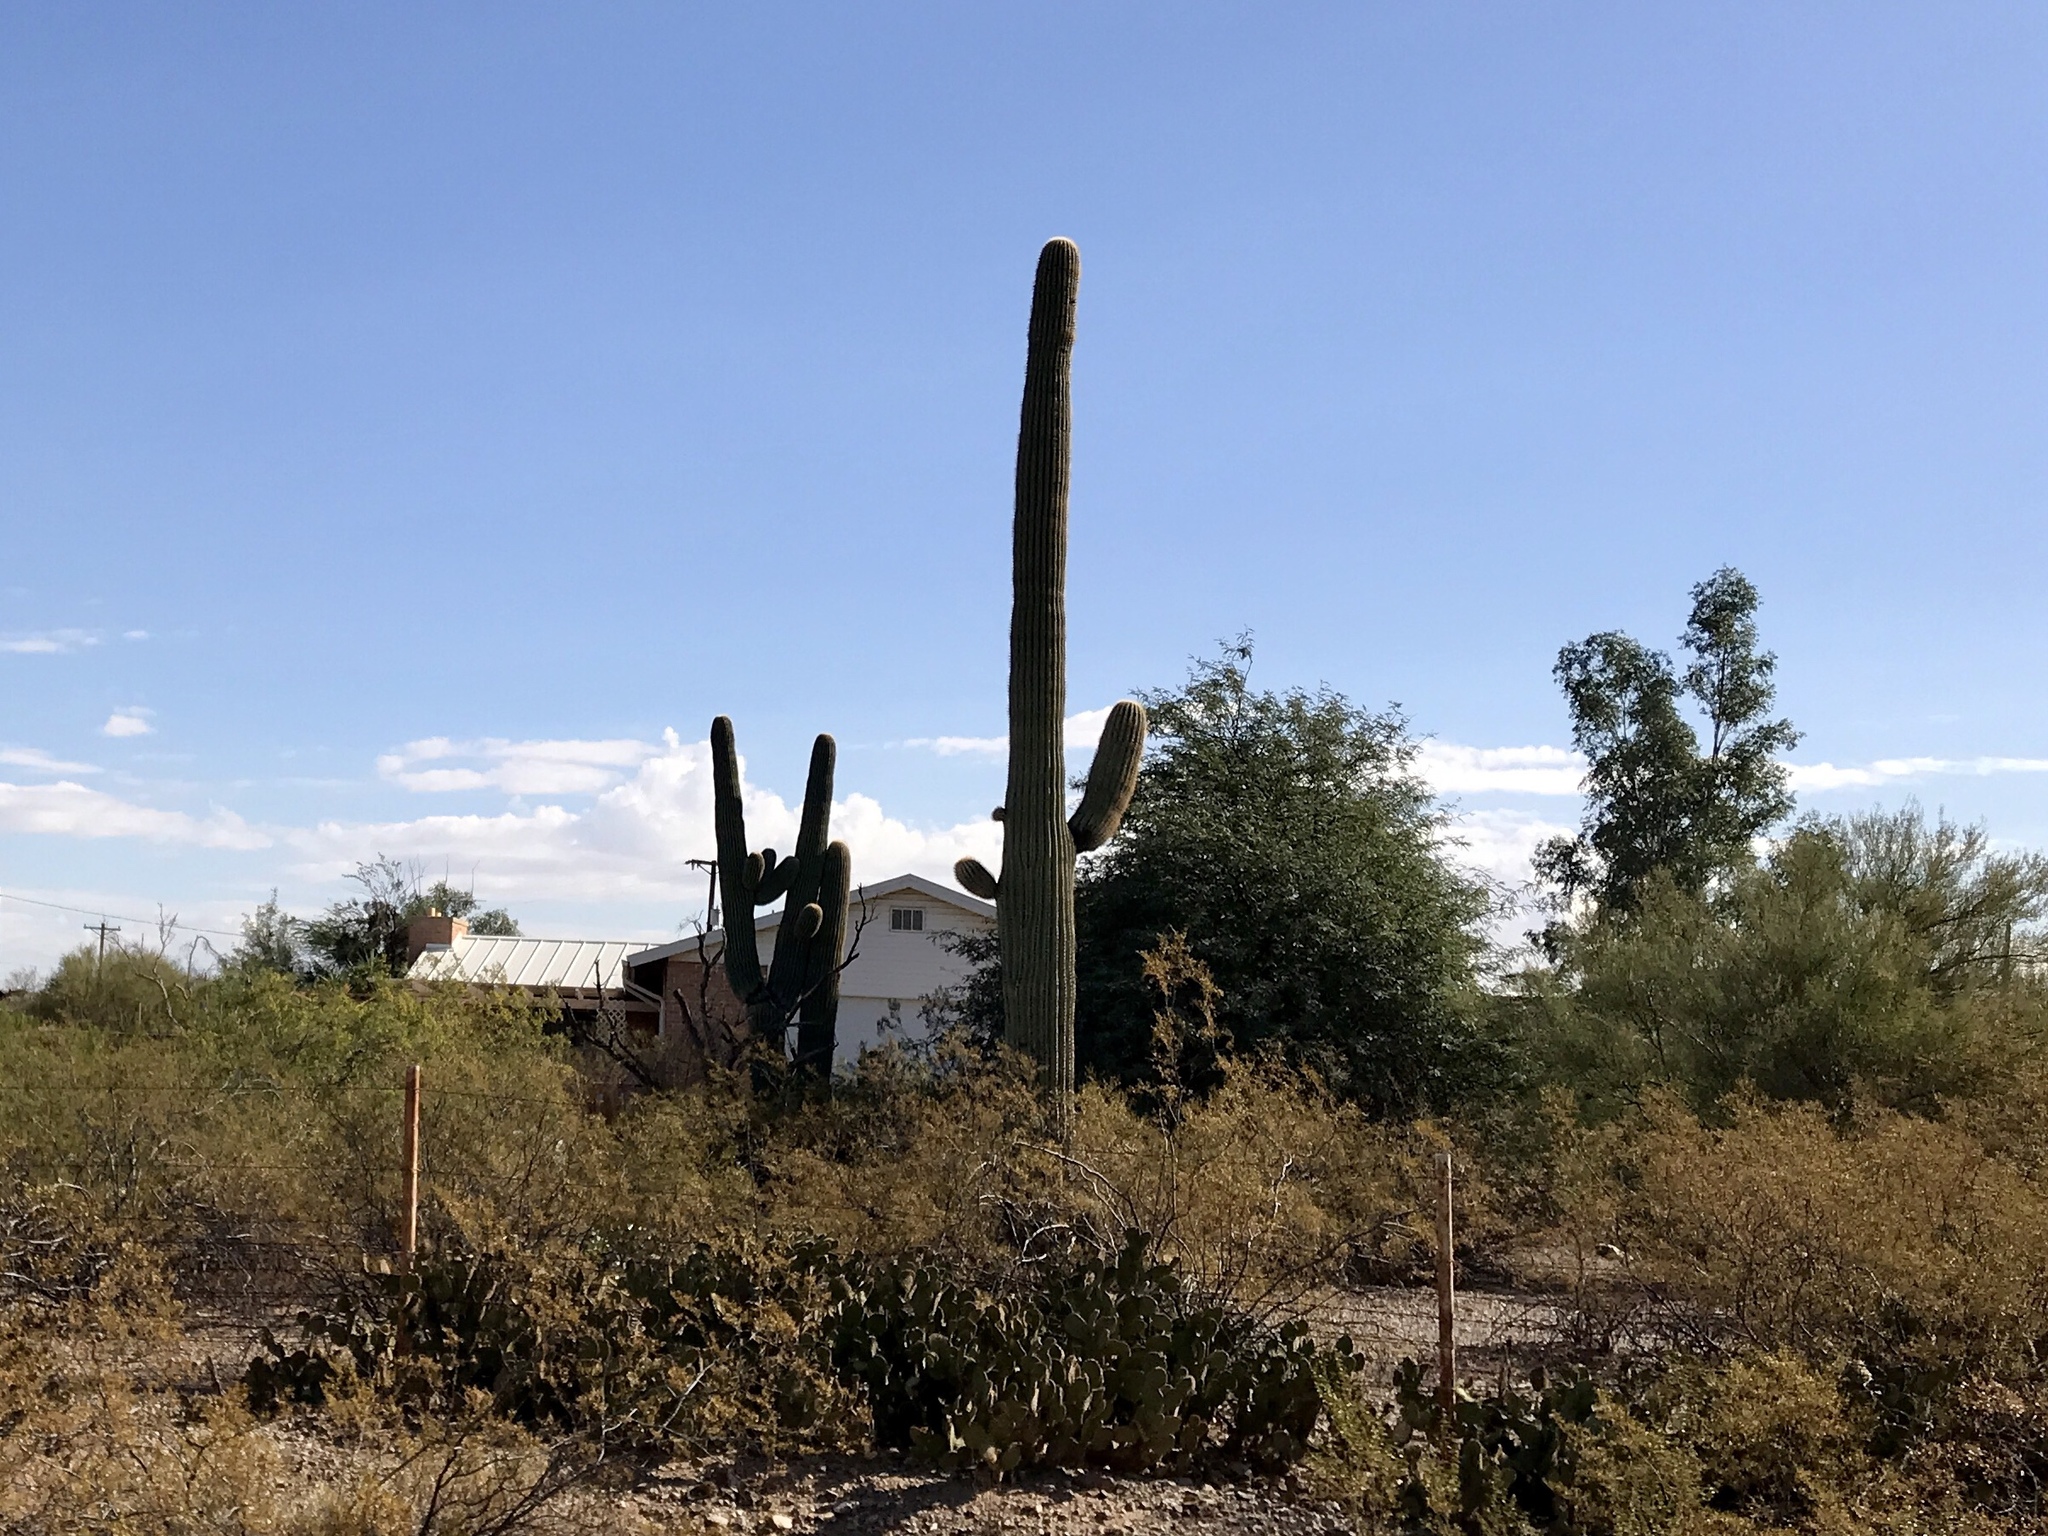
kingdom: Plantae
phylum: Tracheophyta
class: Magnoliopsida
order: Caryophyllales
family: Cactaceae
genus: Carnegiea
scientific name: Carnegiea gigantea
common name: Saguaro
